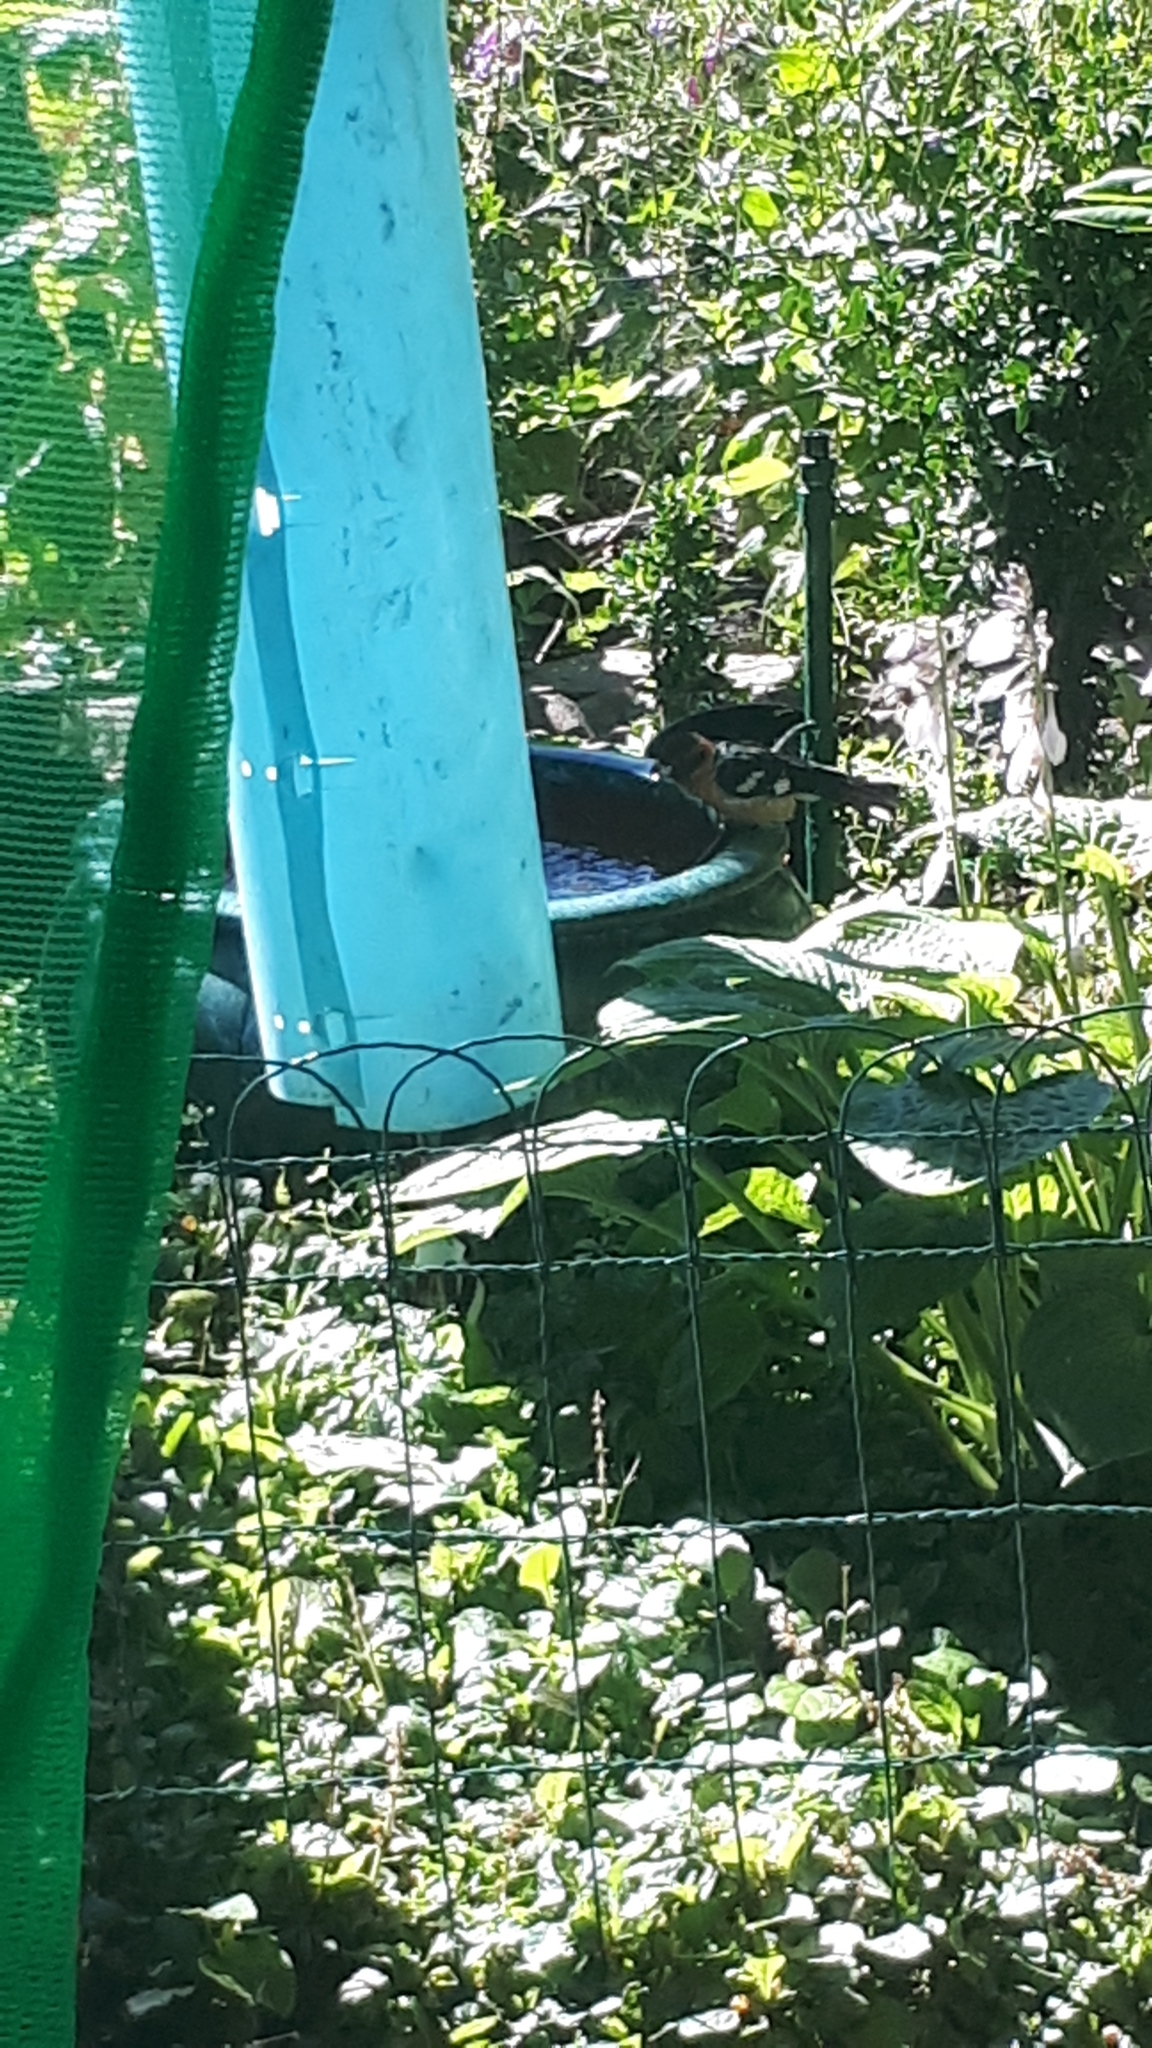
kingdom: Animalia
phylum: Chordata
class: Aves
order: Passeriformes
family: Cardinalidae
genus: Pheucticus
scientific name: Pheucticus melanocephalus
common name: Black-headed grosbeak
